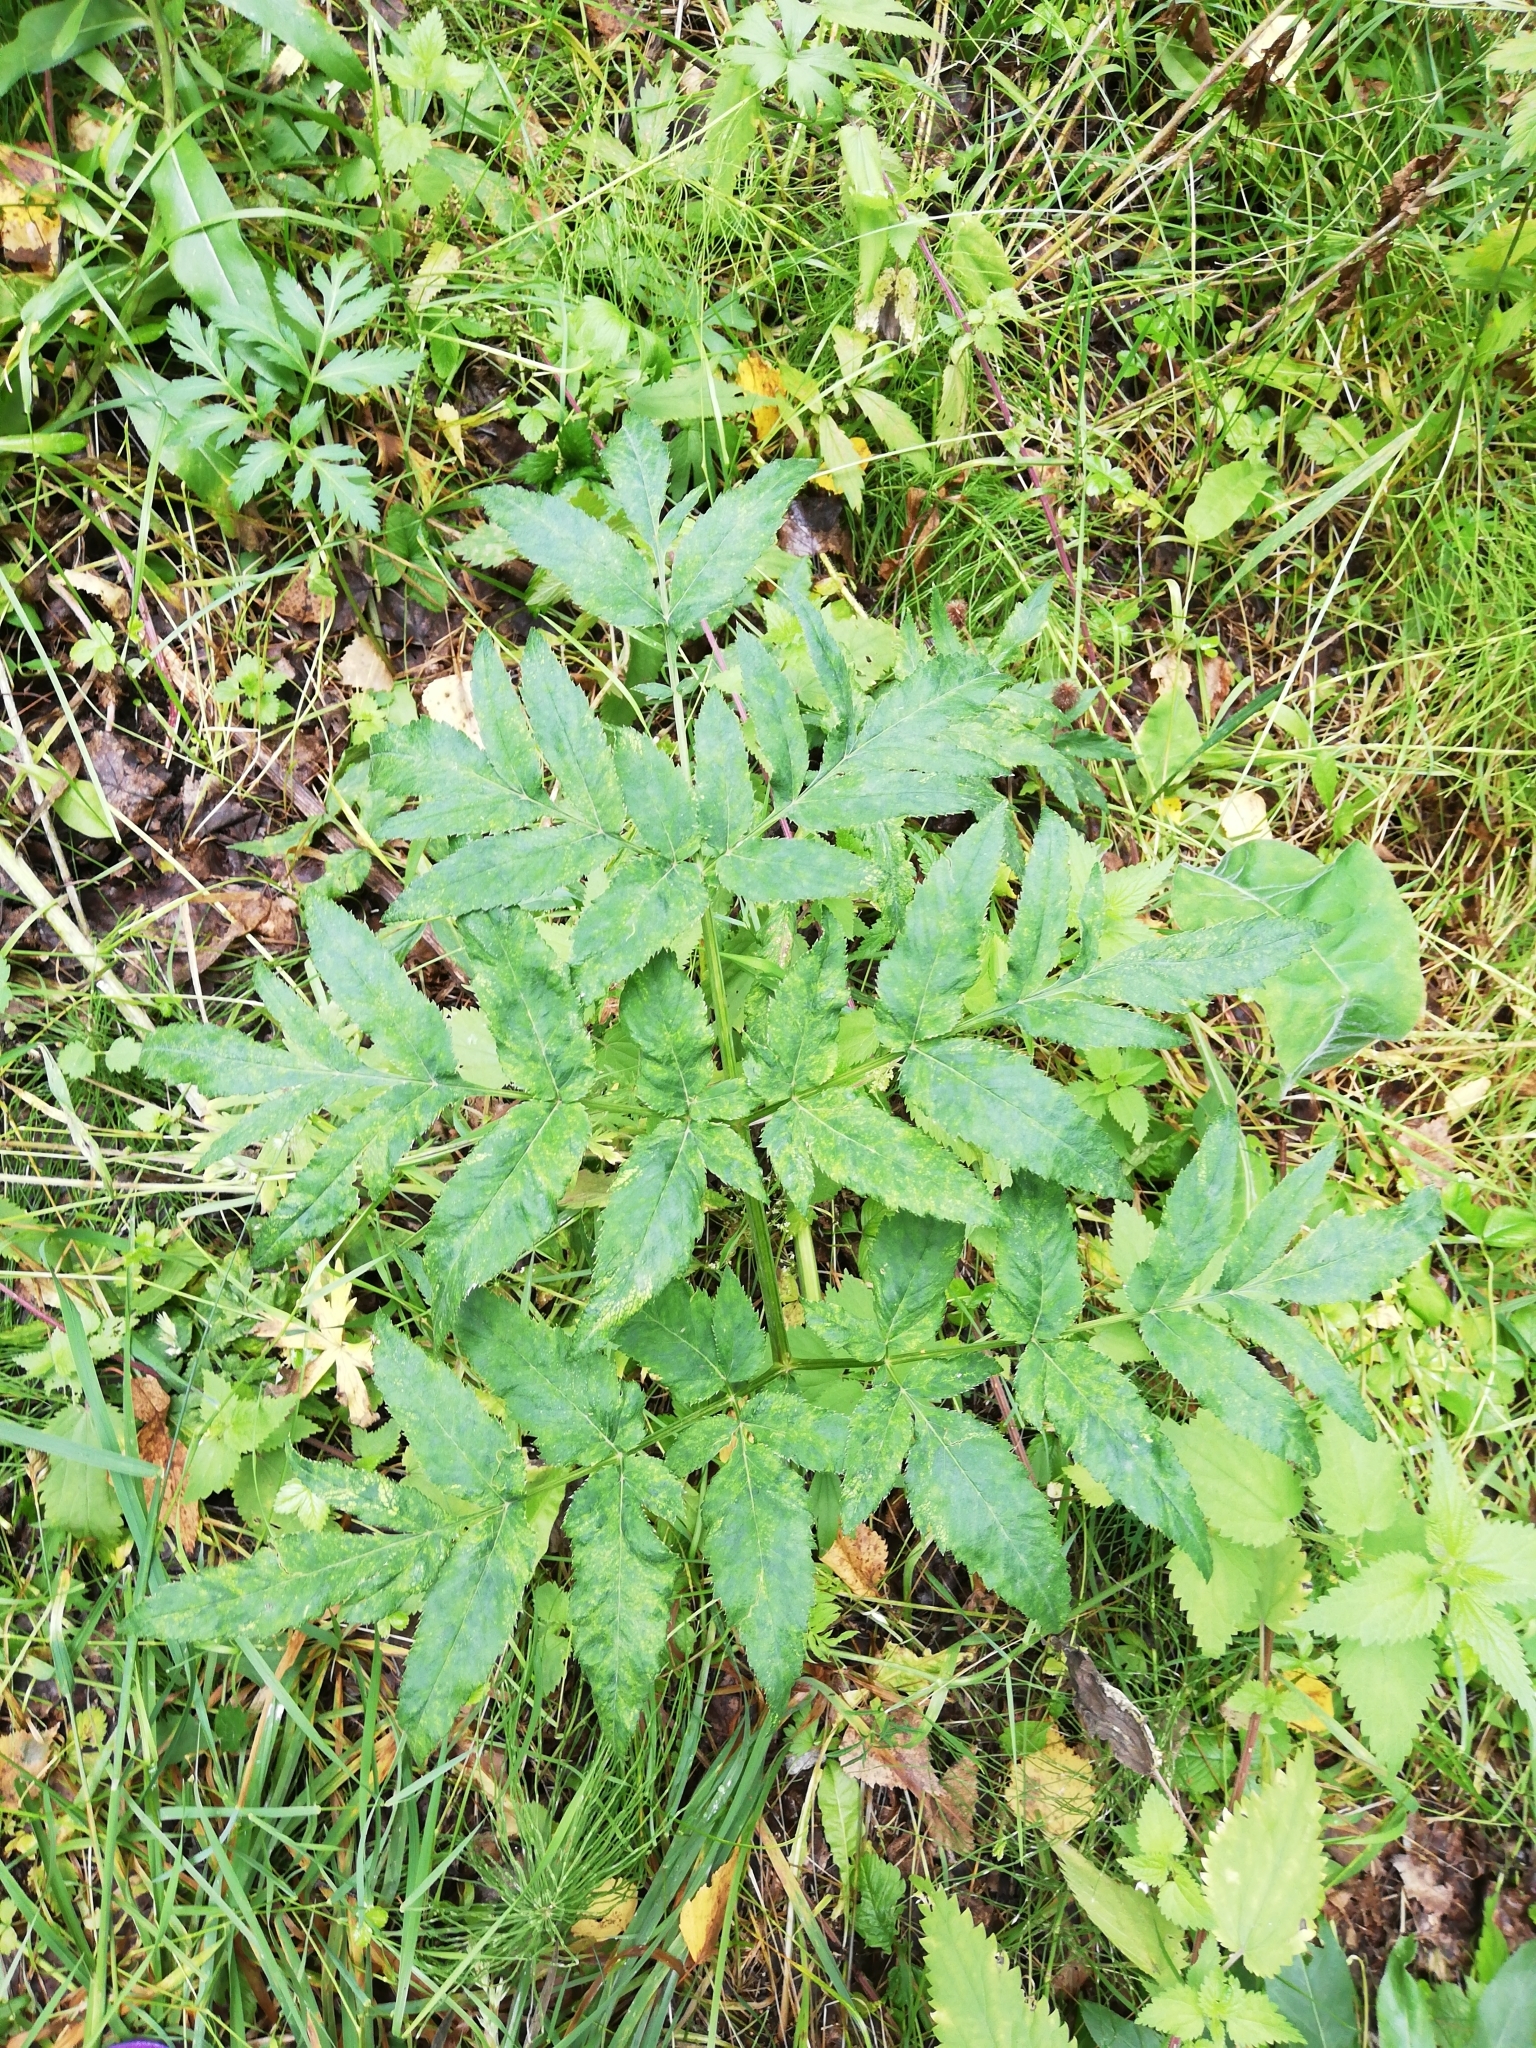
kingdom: Plantae
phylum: Tracheophyta
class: Magnoliopsida
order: Apiales
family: Apiaceae
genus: Angelica
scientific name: Angelica sylvestris
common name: Wild angelica
